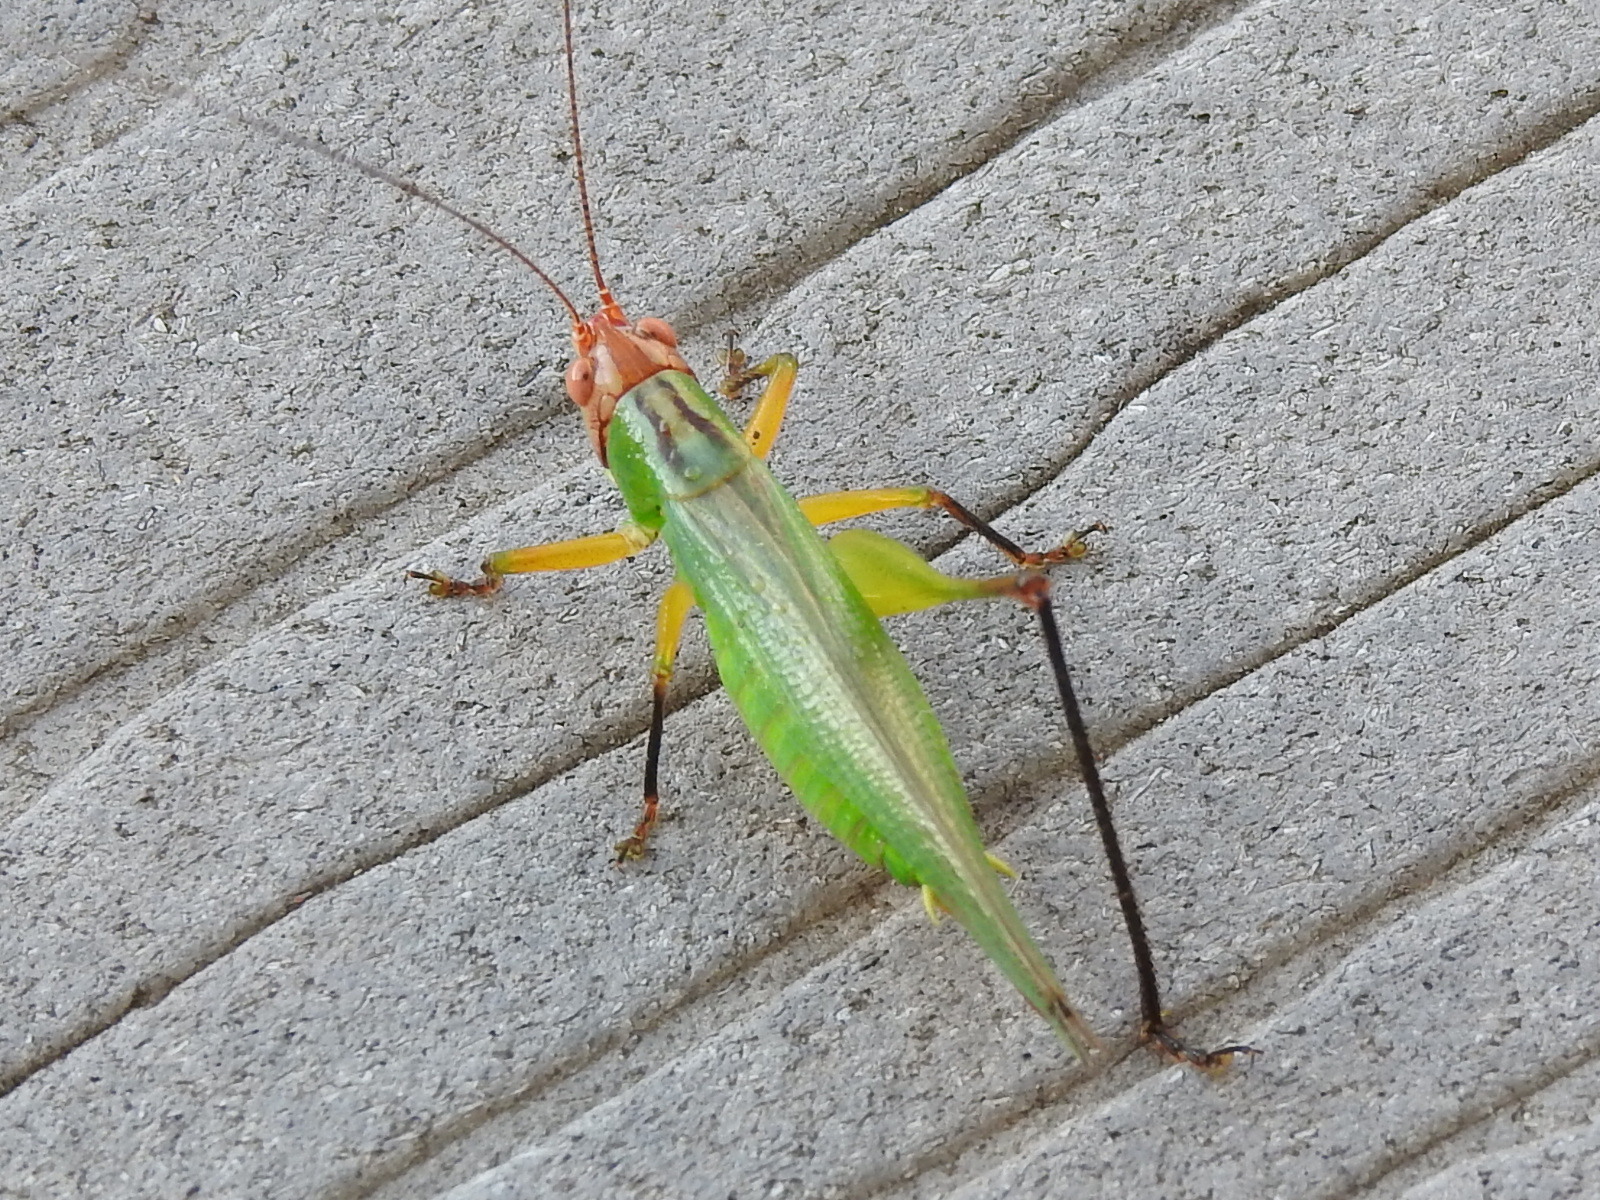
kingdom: Animalia
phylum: Arthropoda
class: Insecta
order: Orthoptera
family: Tettigoniidae
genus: Orchelimum
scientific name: Orchelimum nigripes
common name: Black-legged meadow katydid
